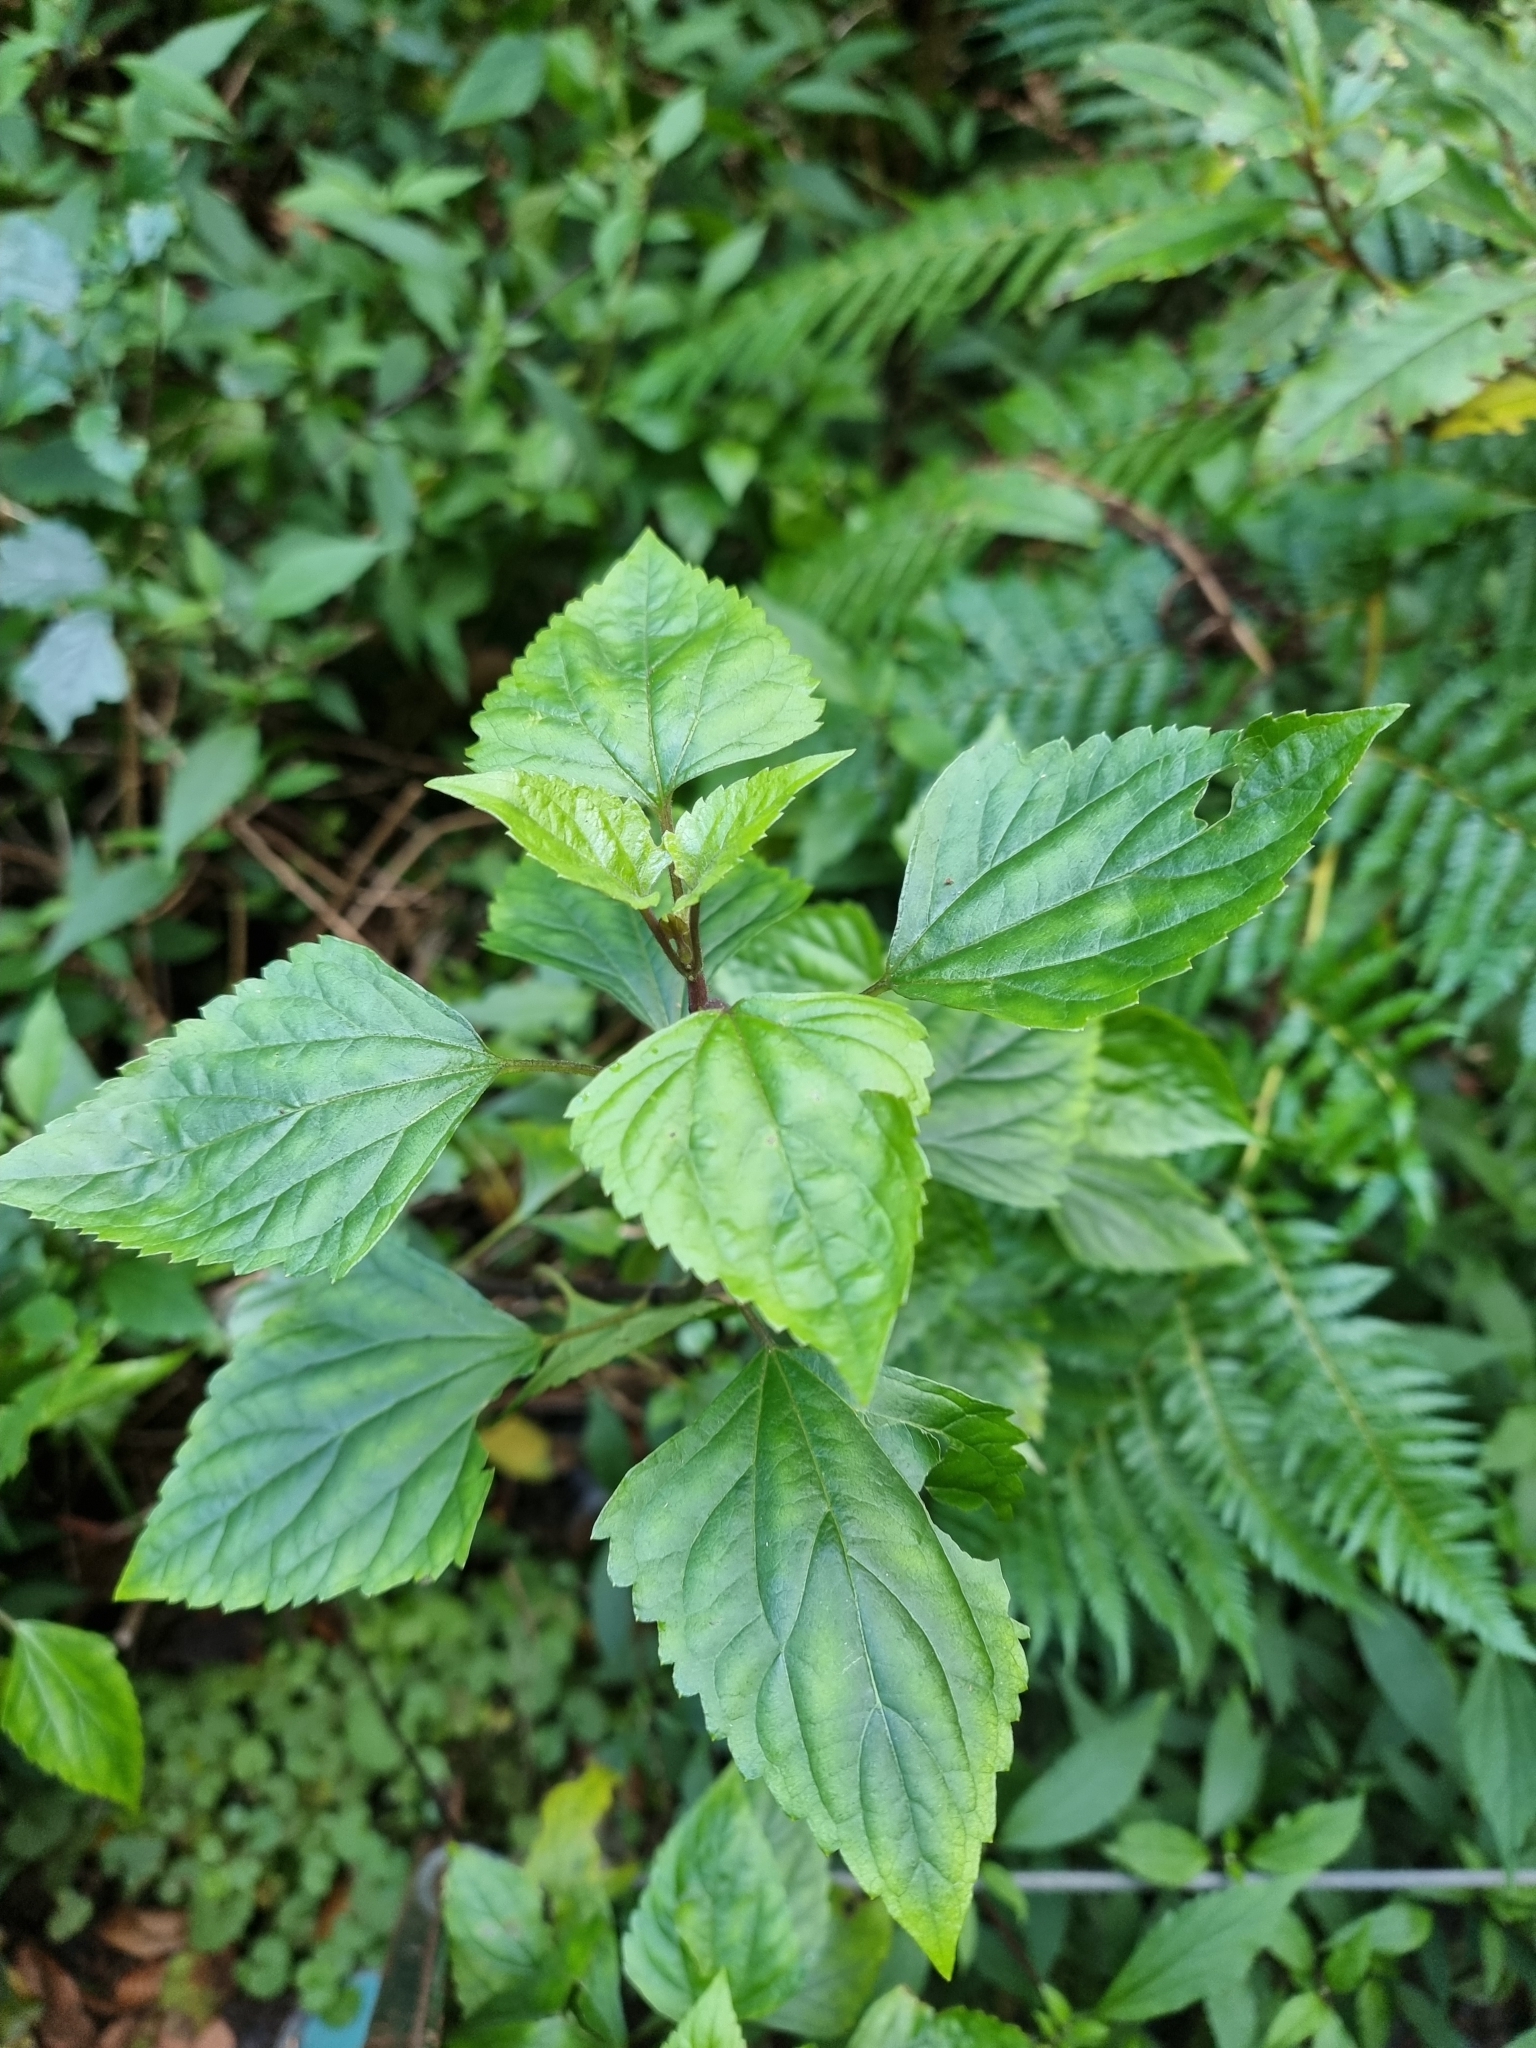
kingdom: Plantae
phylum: Tracheophyta
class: Magnoliopsida
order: Asterales
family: Asteraceae
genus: Ageratina
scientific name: Ageratina adenophora
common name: Sticky snakeroot
